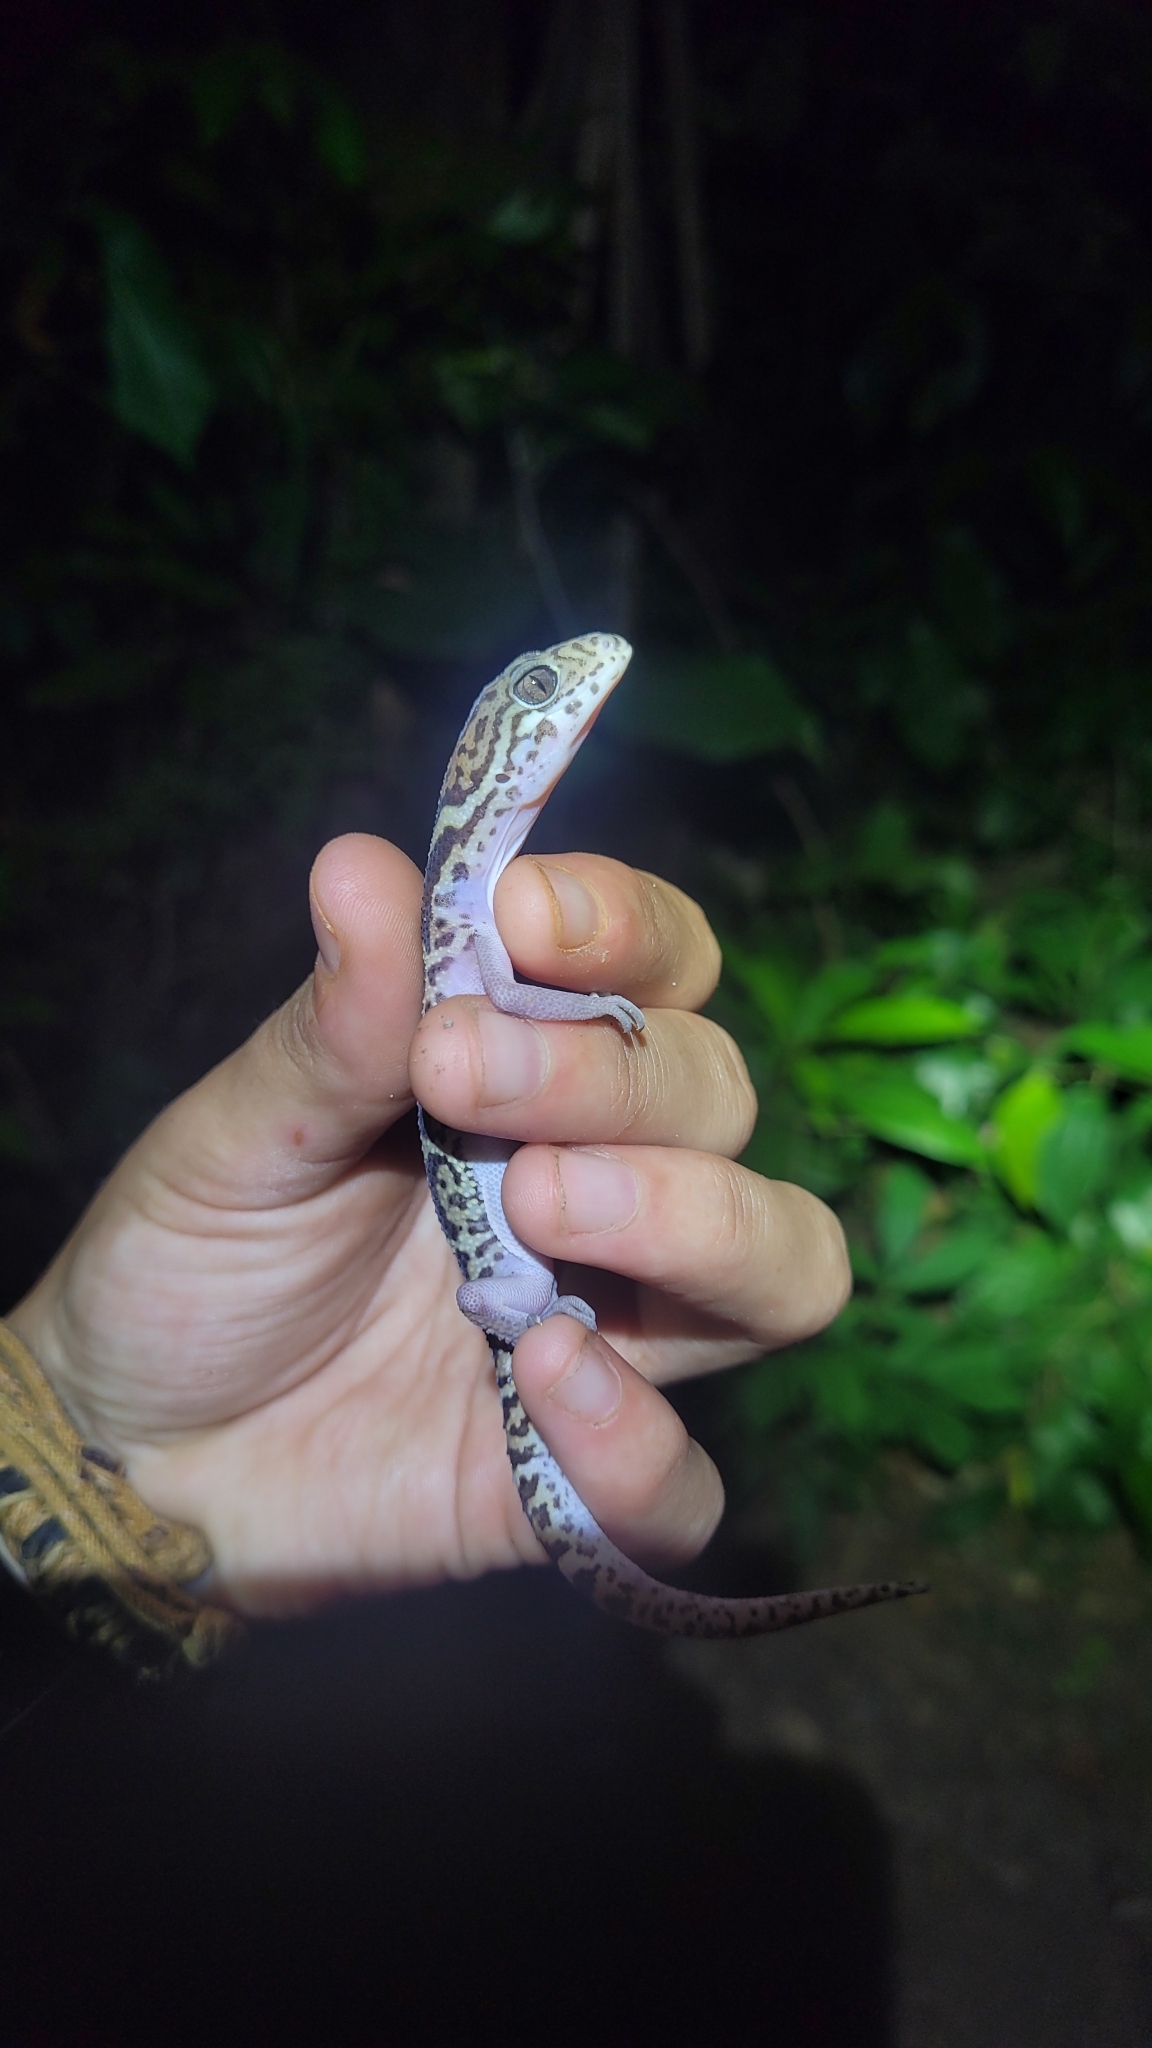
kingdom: Animalia
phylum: Chordata
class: Squamata
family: Eublepharidae
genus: Coleonyx
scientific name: Coleonyx mitratus
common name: Central american banded gecko
